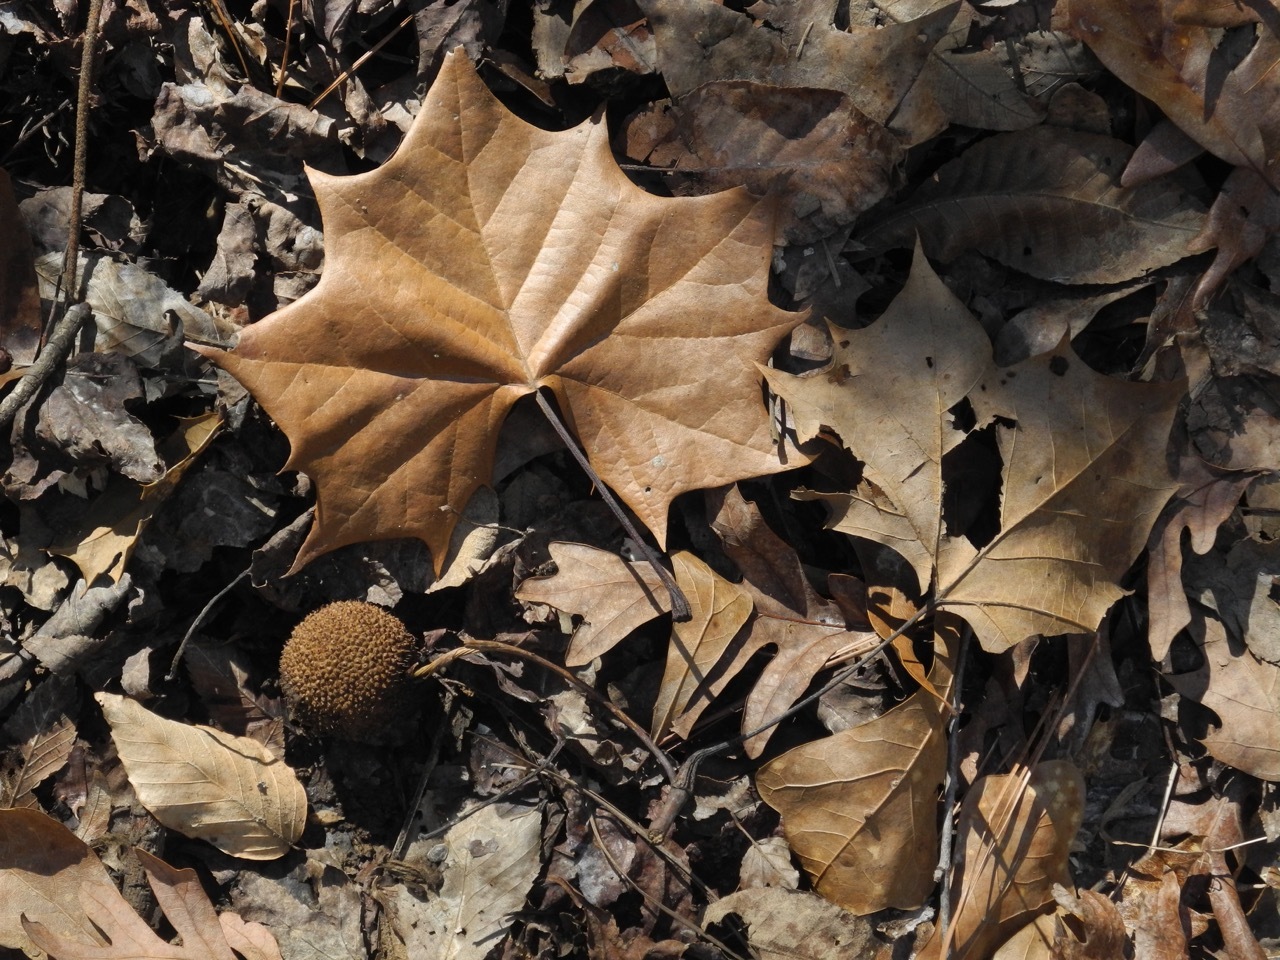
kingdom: Plantae
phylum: Tracheophyta
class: Magnoliopsida
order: Proteales
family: Platanaceae
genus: Platanus
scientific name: Platanus occidentalis
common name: American sycamore
